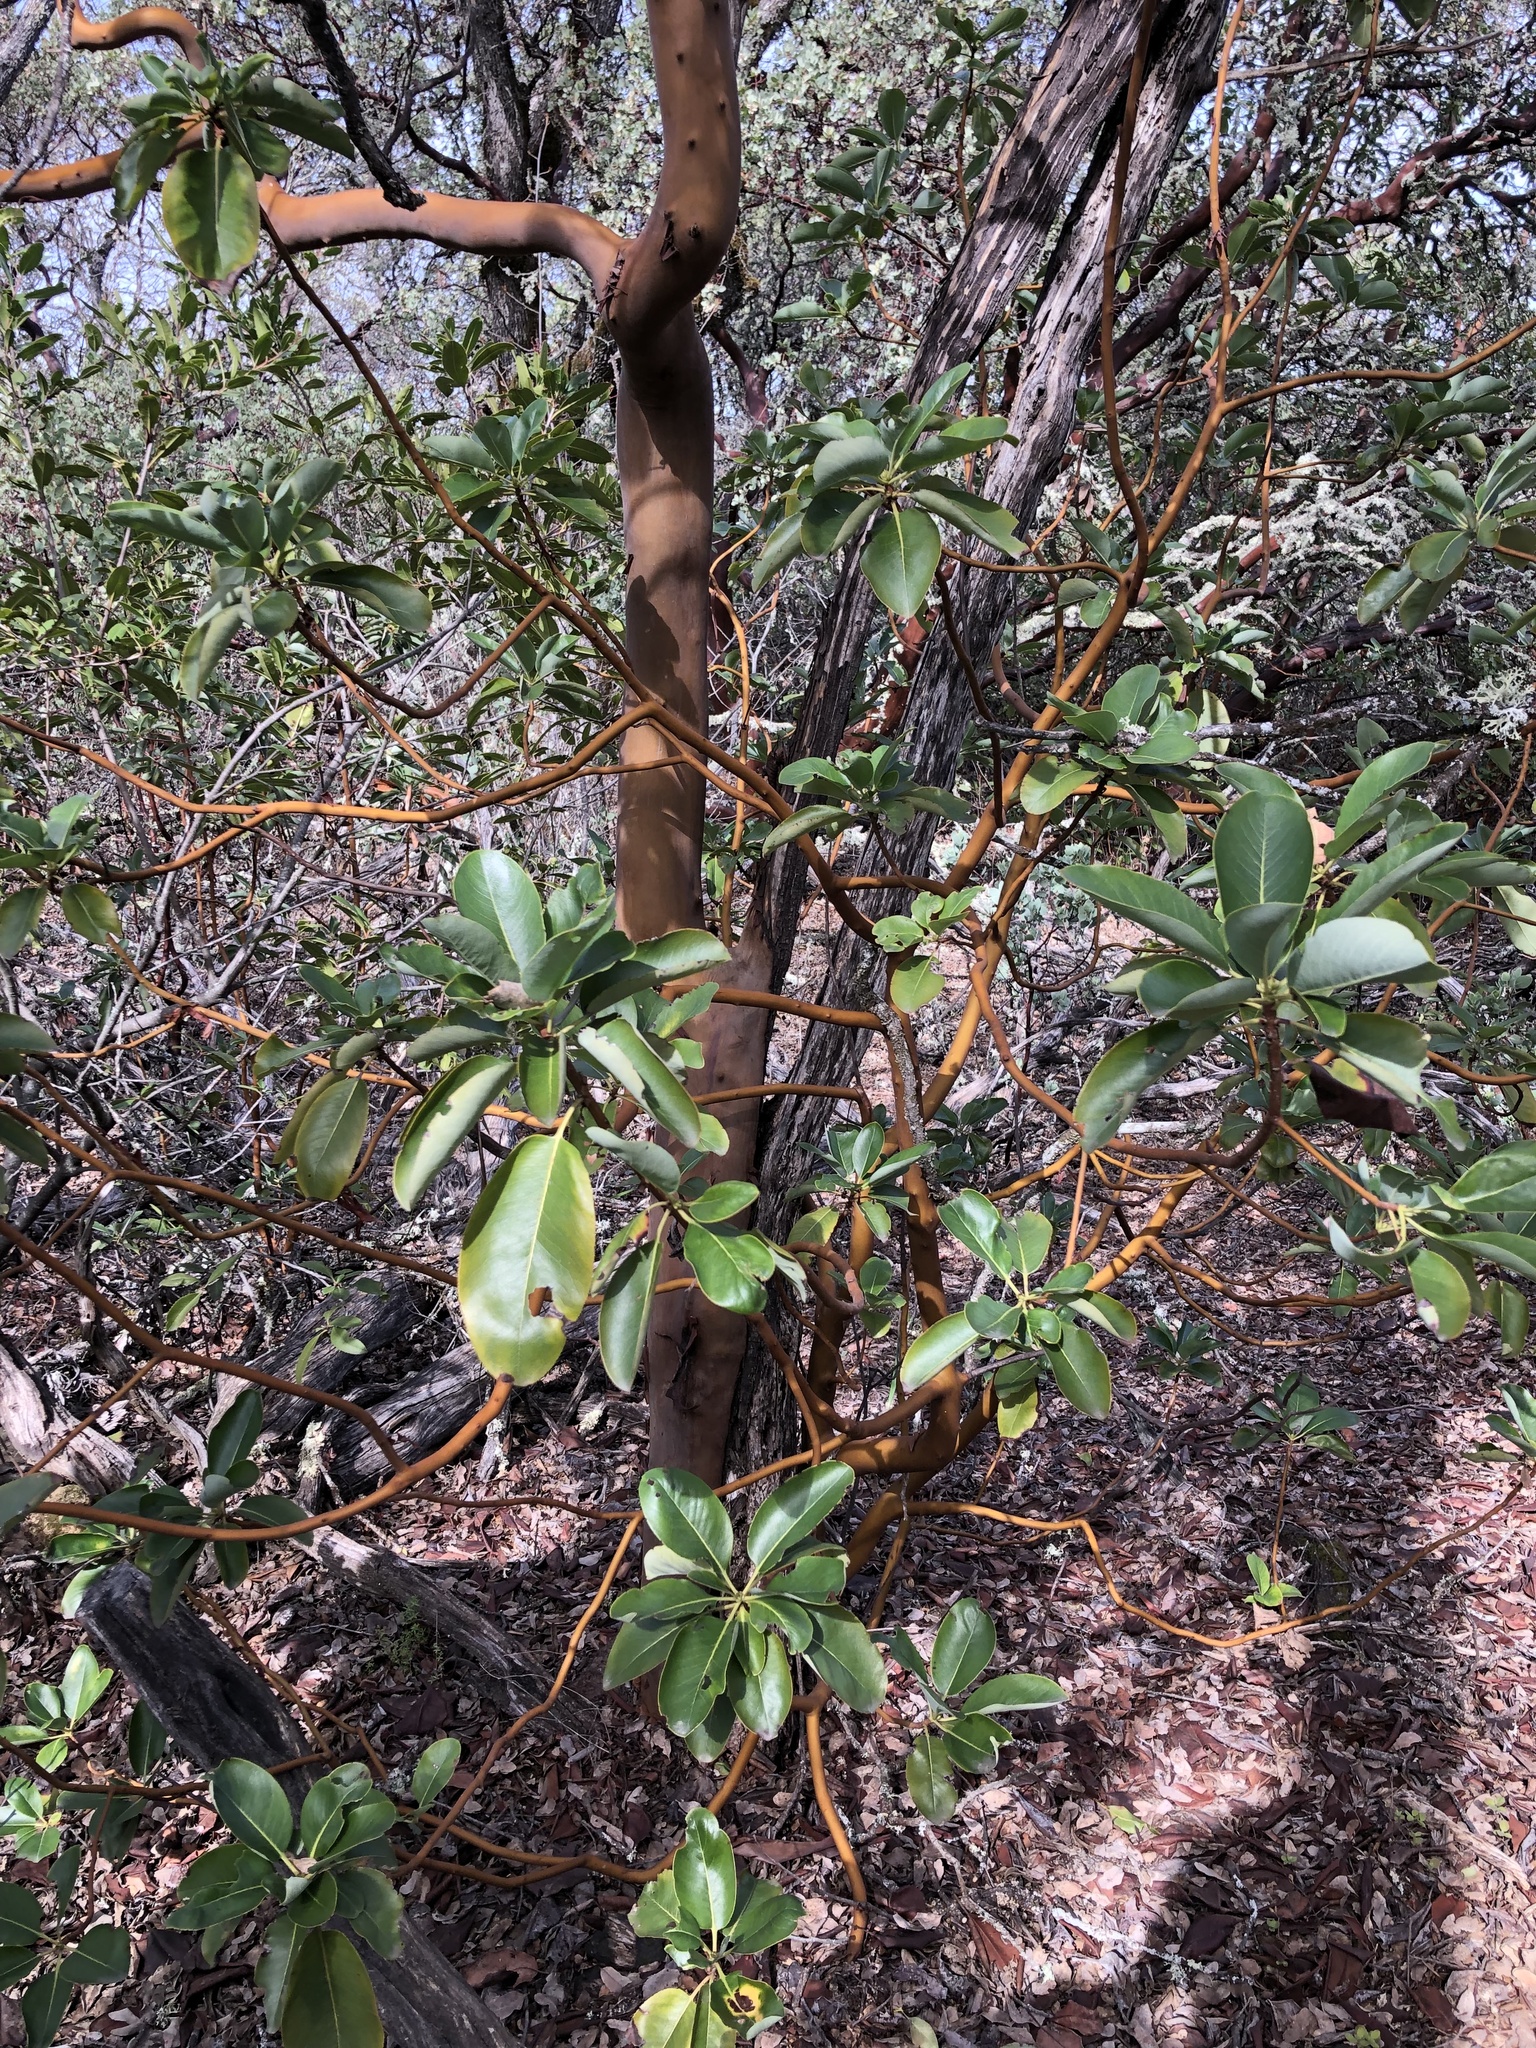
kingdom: Plantae
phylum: Tracheophyta
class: Magnoliopsida
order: Ericales
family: Ericaceae
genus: Arbutus
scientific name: Arbutus menziesii
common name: Pacific madrone
